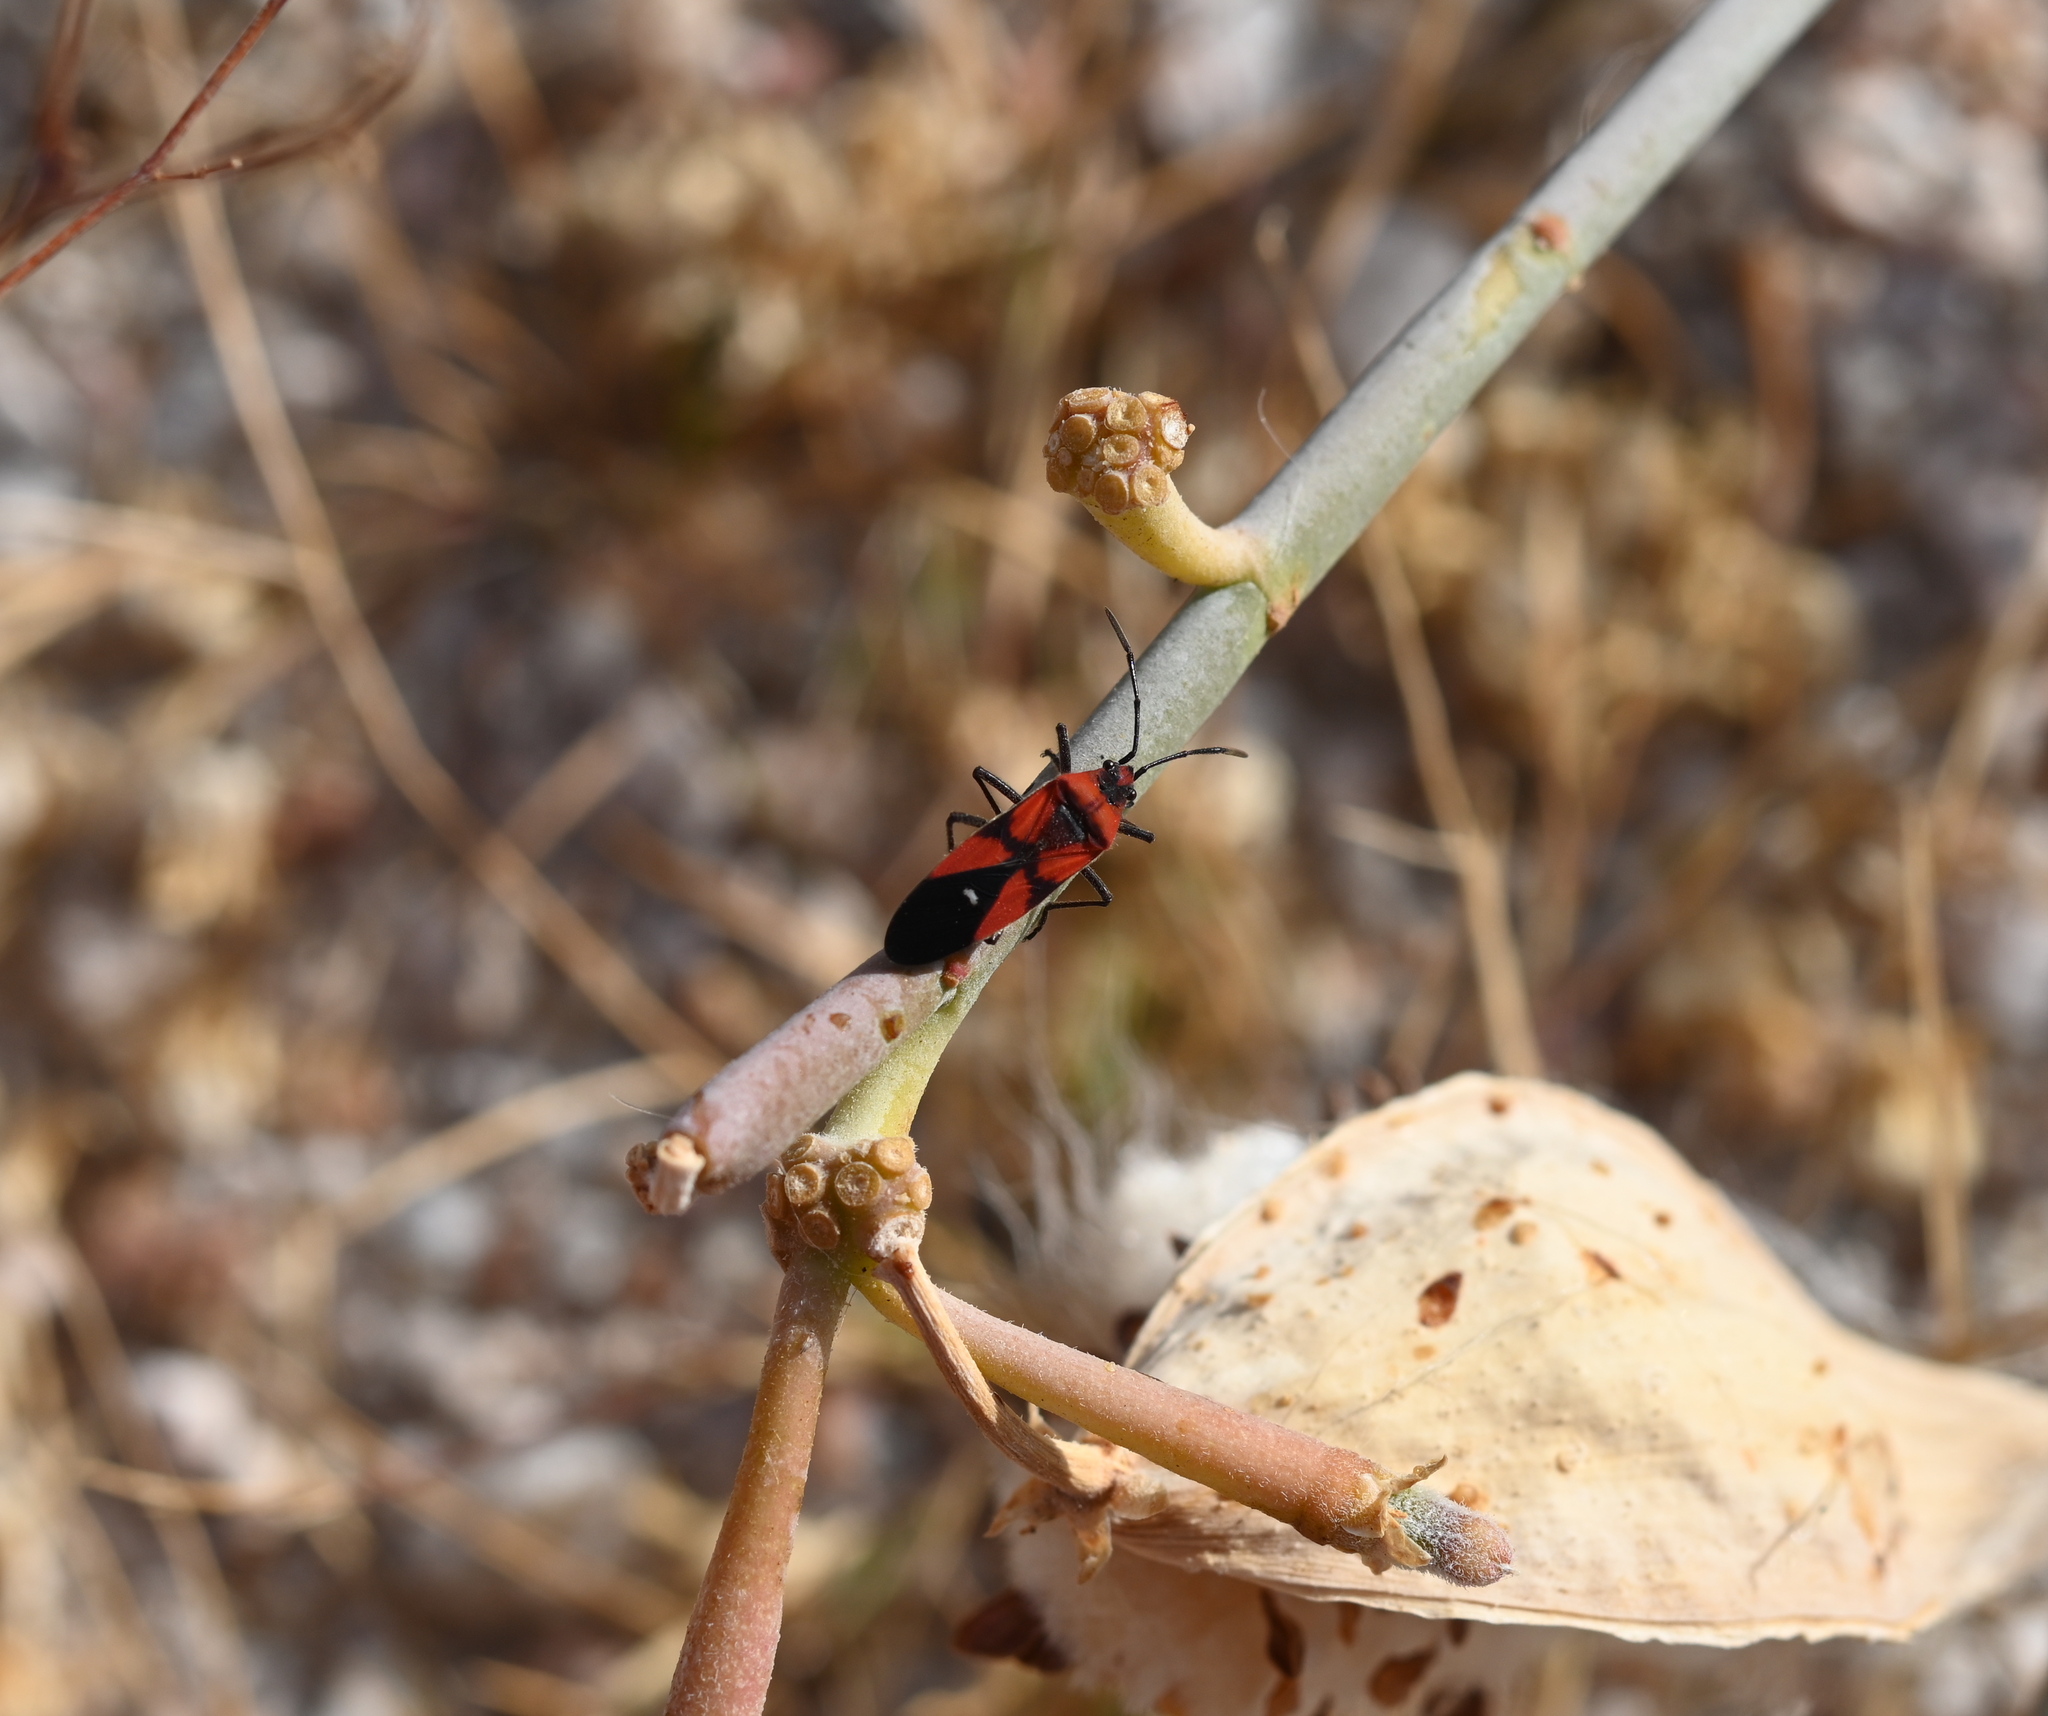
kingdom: Animalia
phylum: Arthropoda
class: Insecta
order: Hemiptera
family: Lygaeidae
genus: Oncopeltus
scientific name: Oncopeltus sanguinolentus
